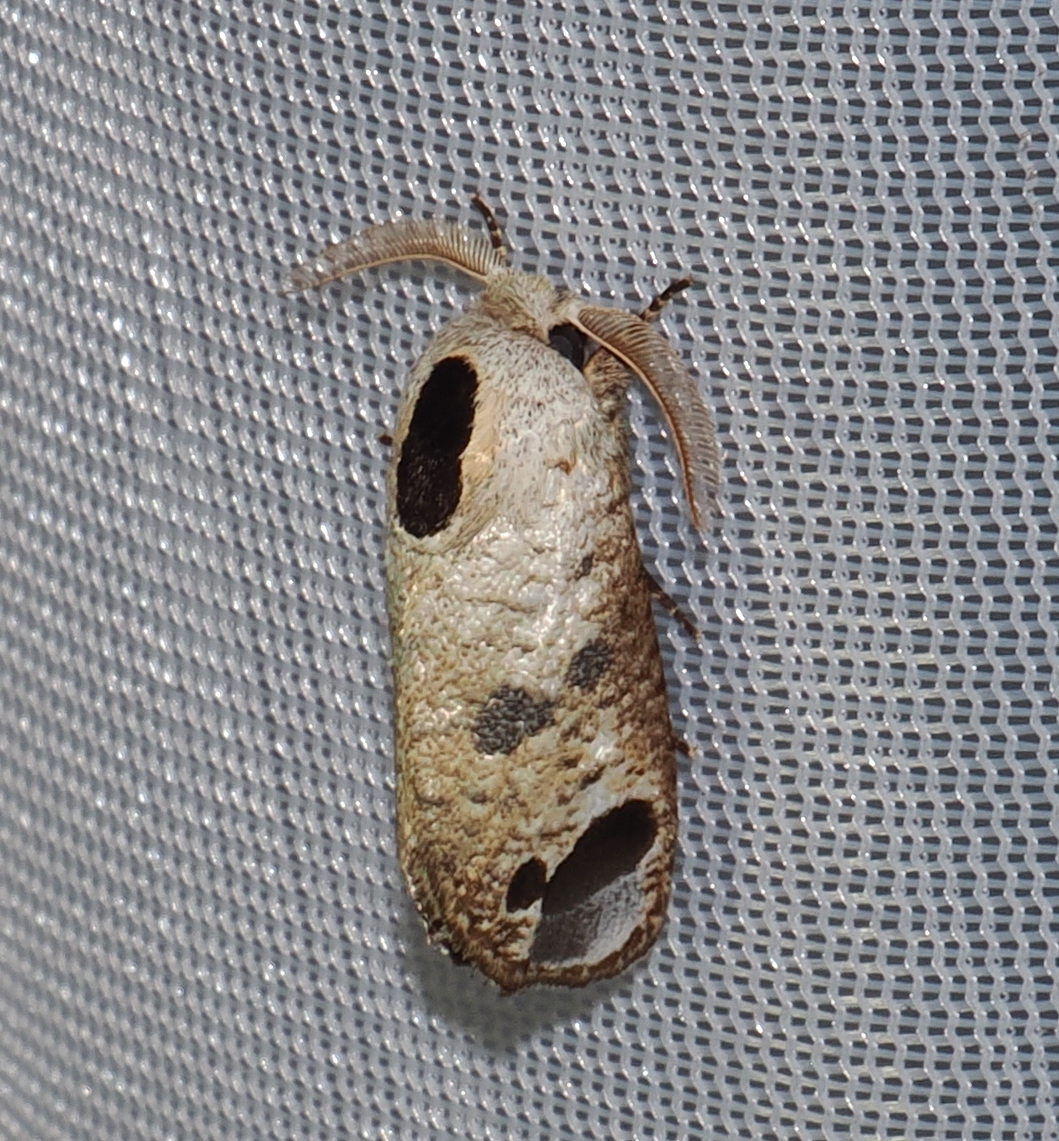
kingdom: Animalia
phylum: Arthropoda
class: Insecta
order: Lepidoptera
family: Cossidae
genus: Cossula
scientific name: Cossula interrogationis
